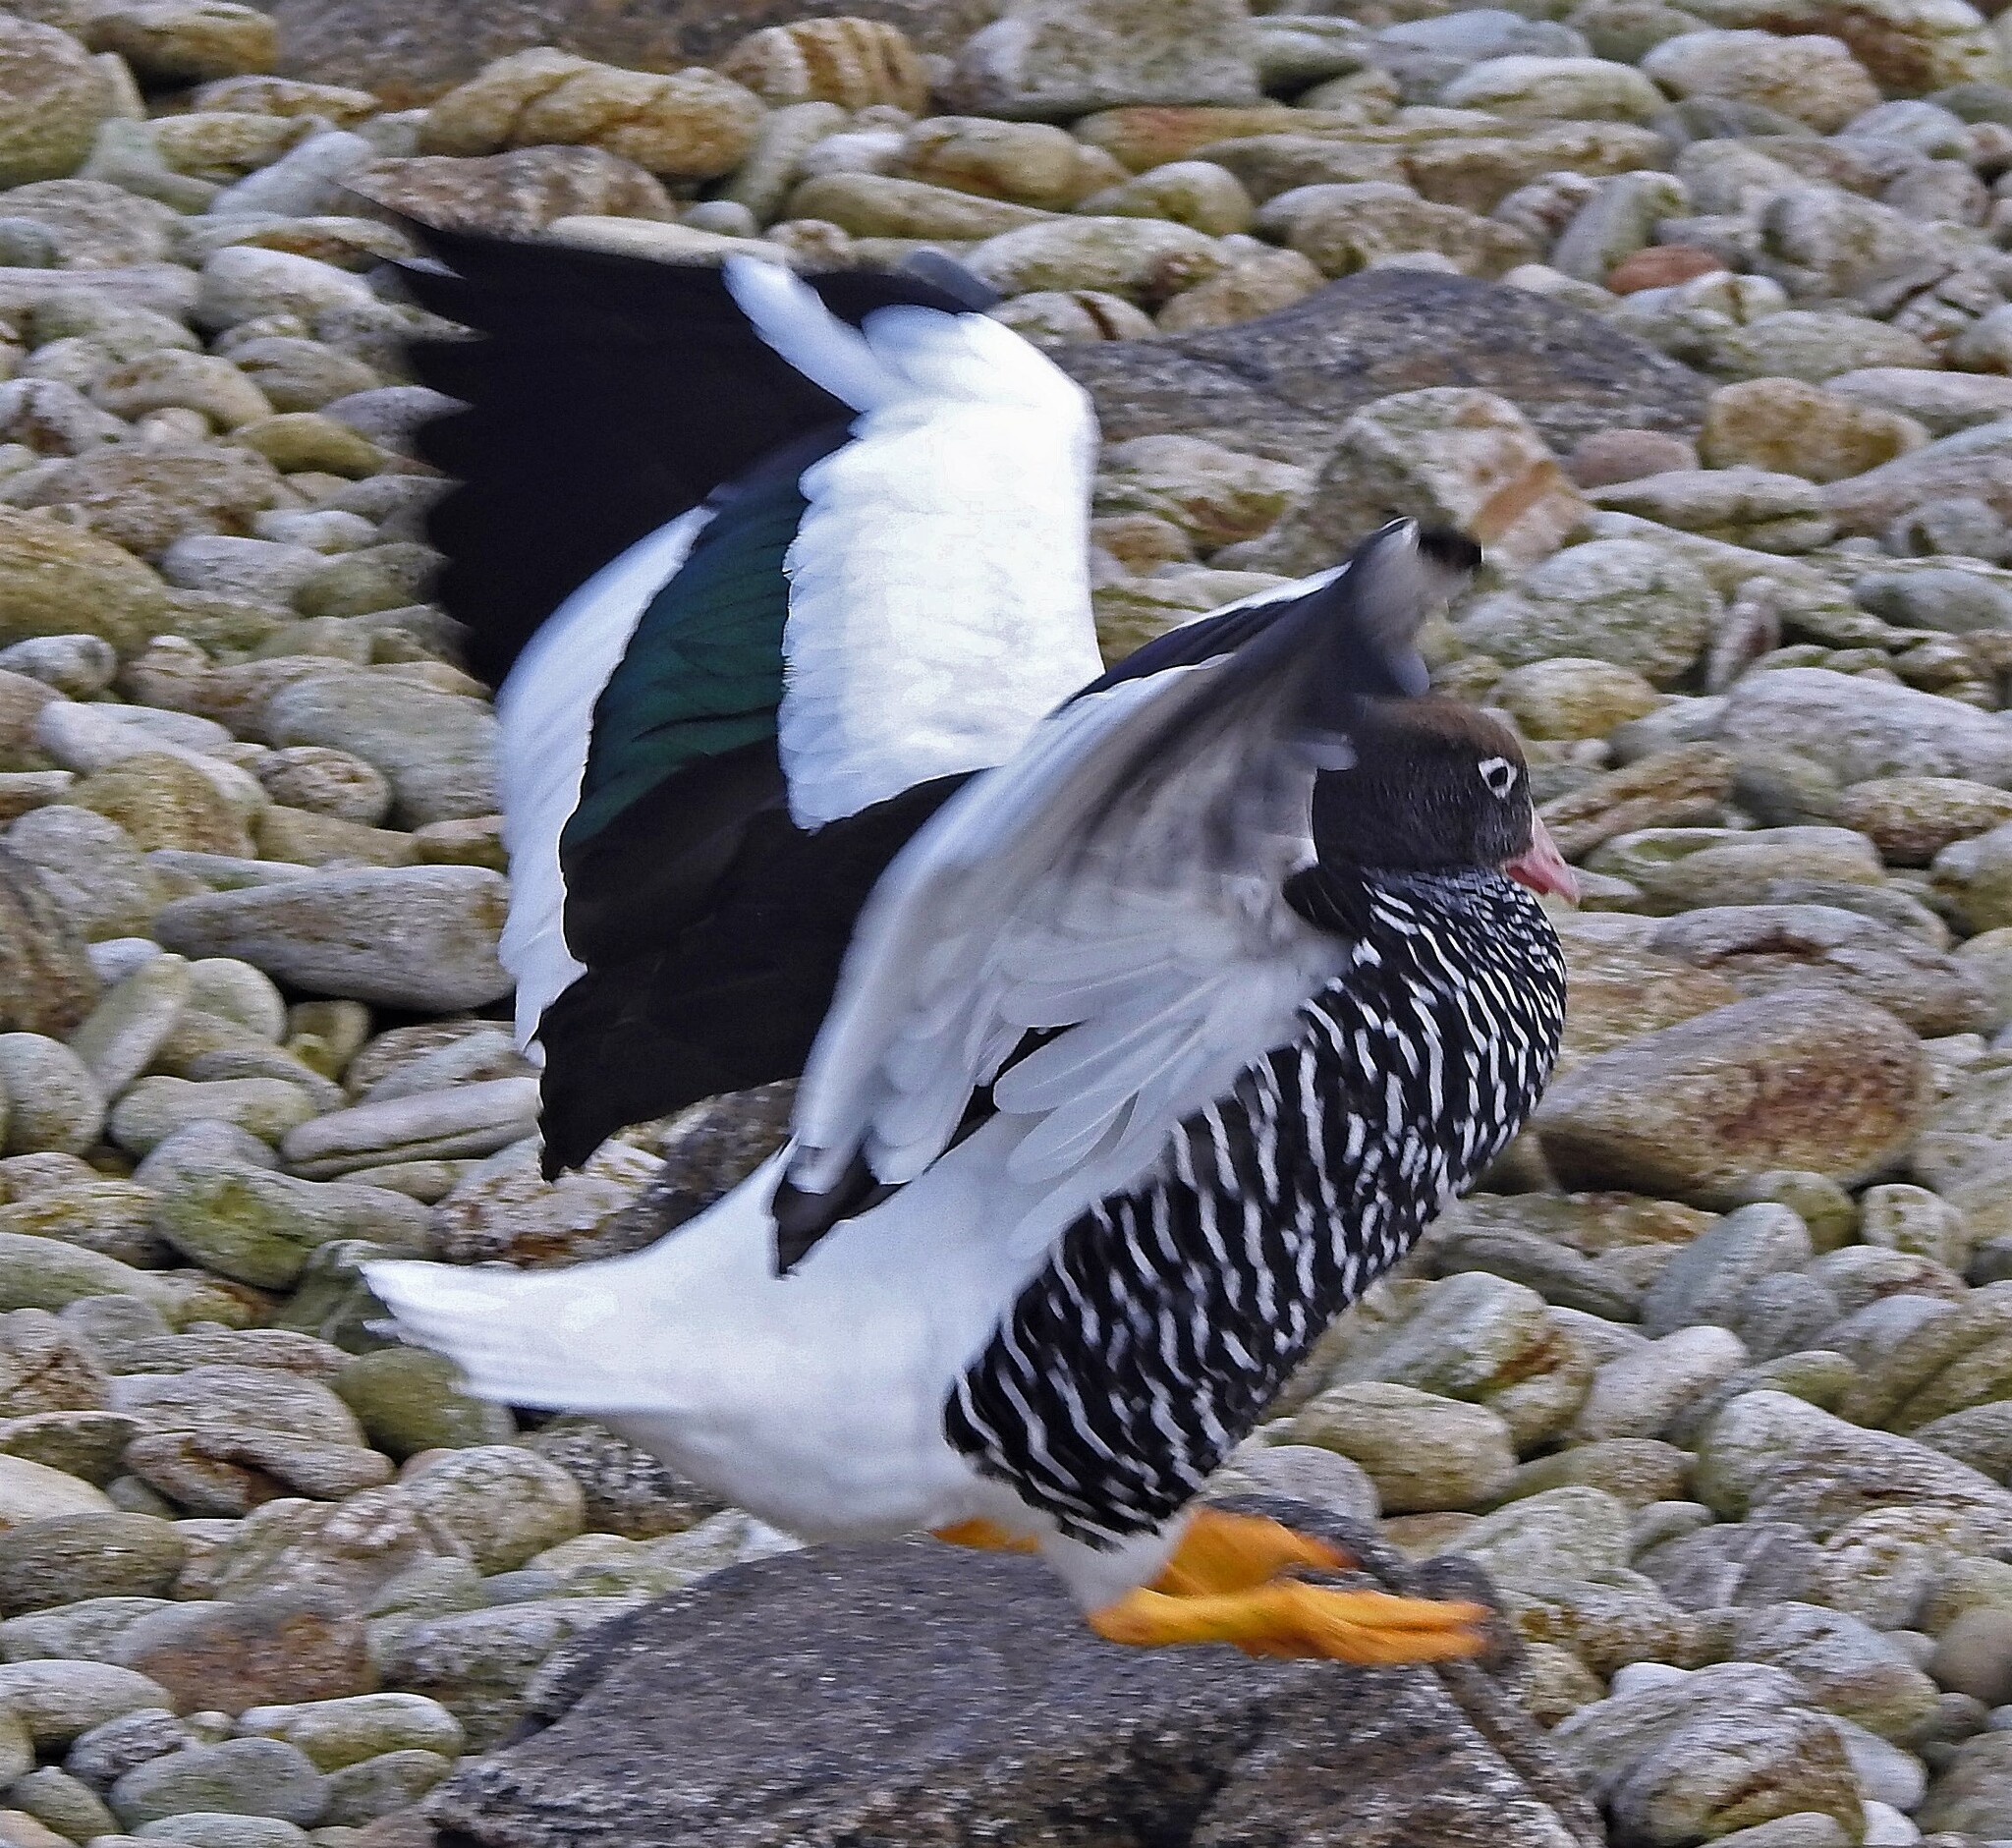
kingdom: Animalia
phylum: Chordata
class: Aves
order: Anseriformes
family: Anatidae
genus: Chloephaga
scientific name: Chloephaga hybrida
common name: Kelp goose
